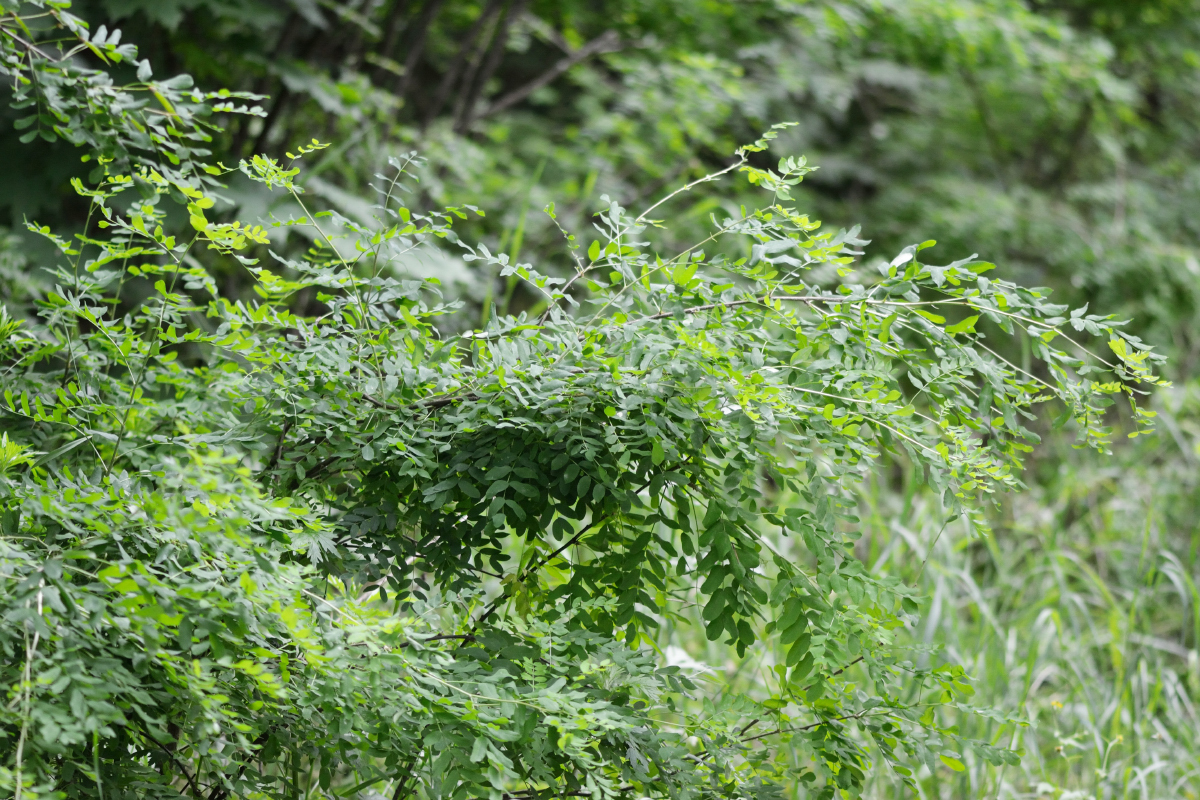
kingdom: Plantae
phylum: Tracheophyta
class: Magnoliopsida
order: Fabales
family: Fabaceae
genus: Caragana
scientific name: Caragana arborescens
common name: Siberian peashrub
